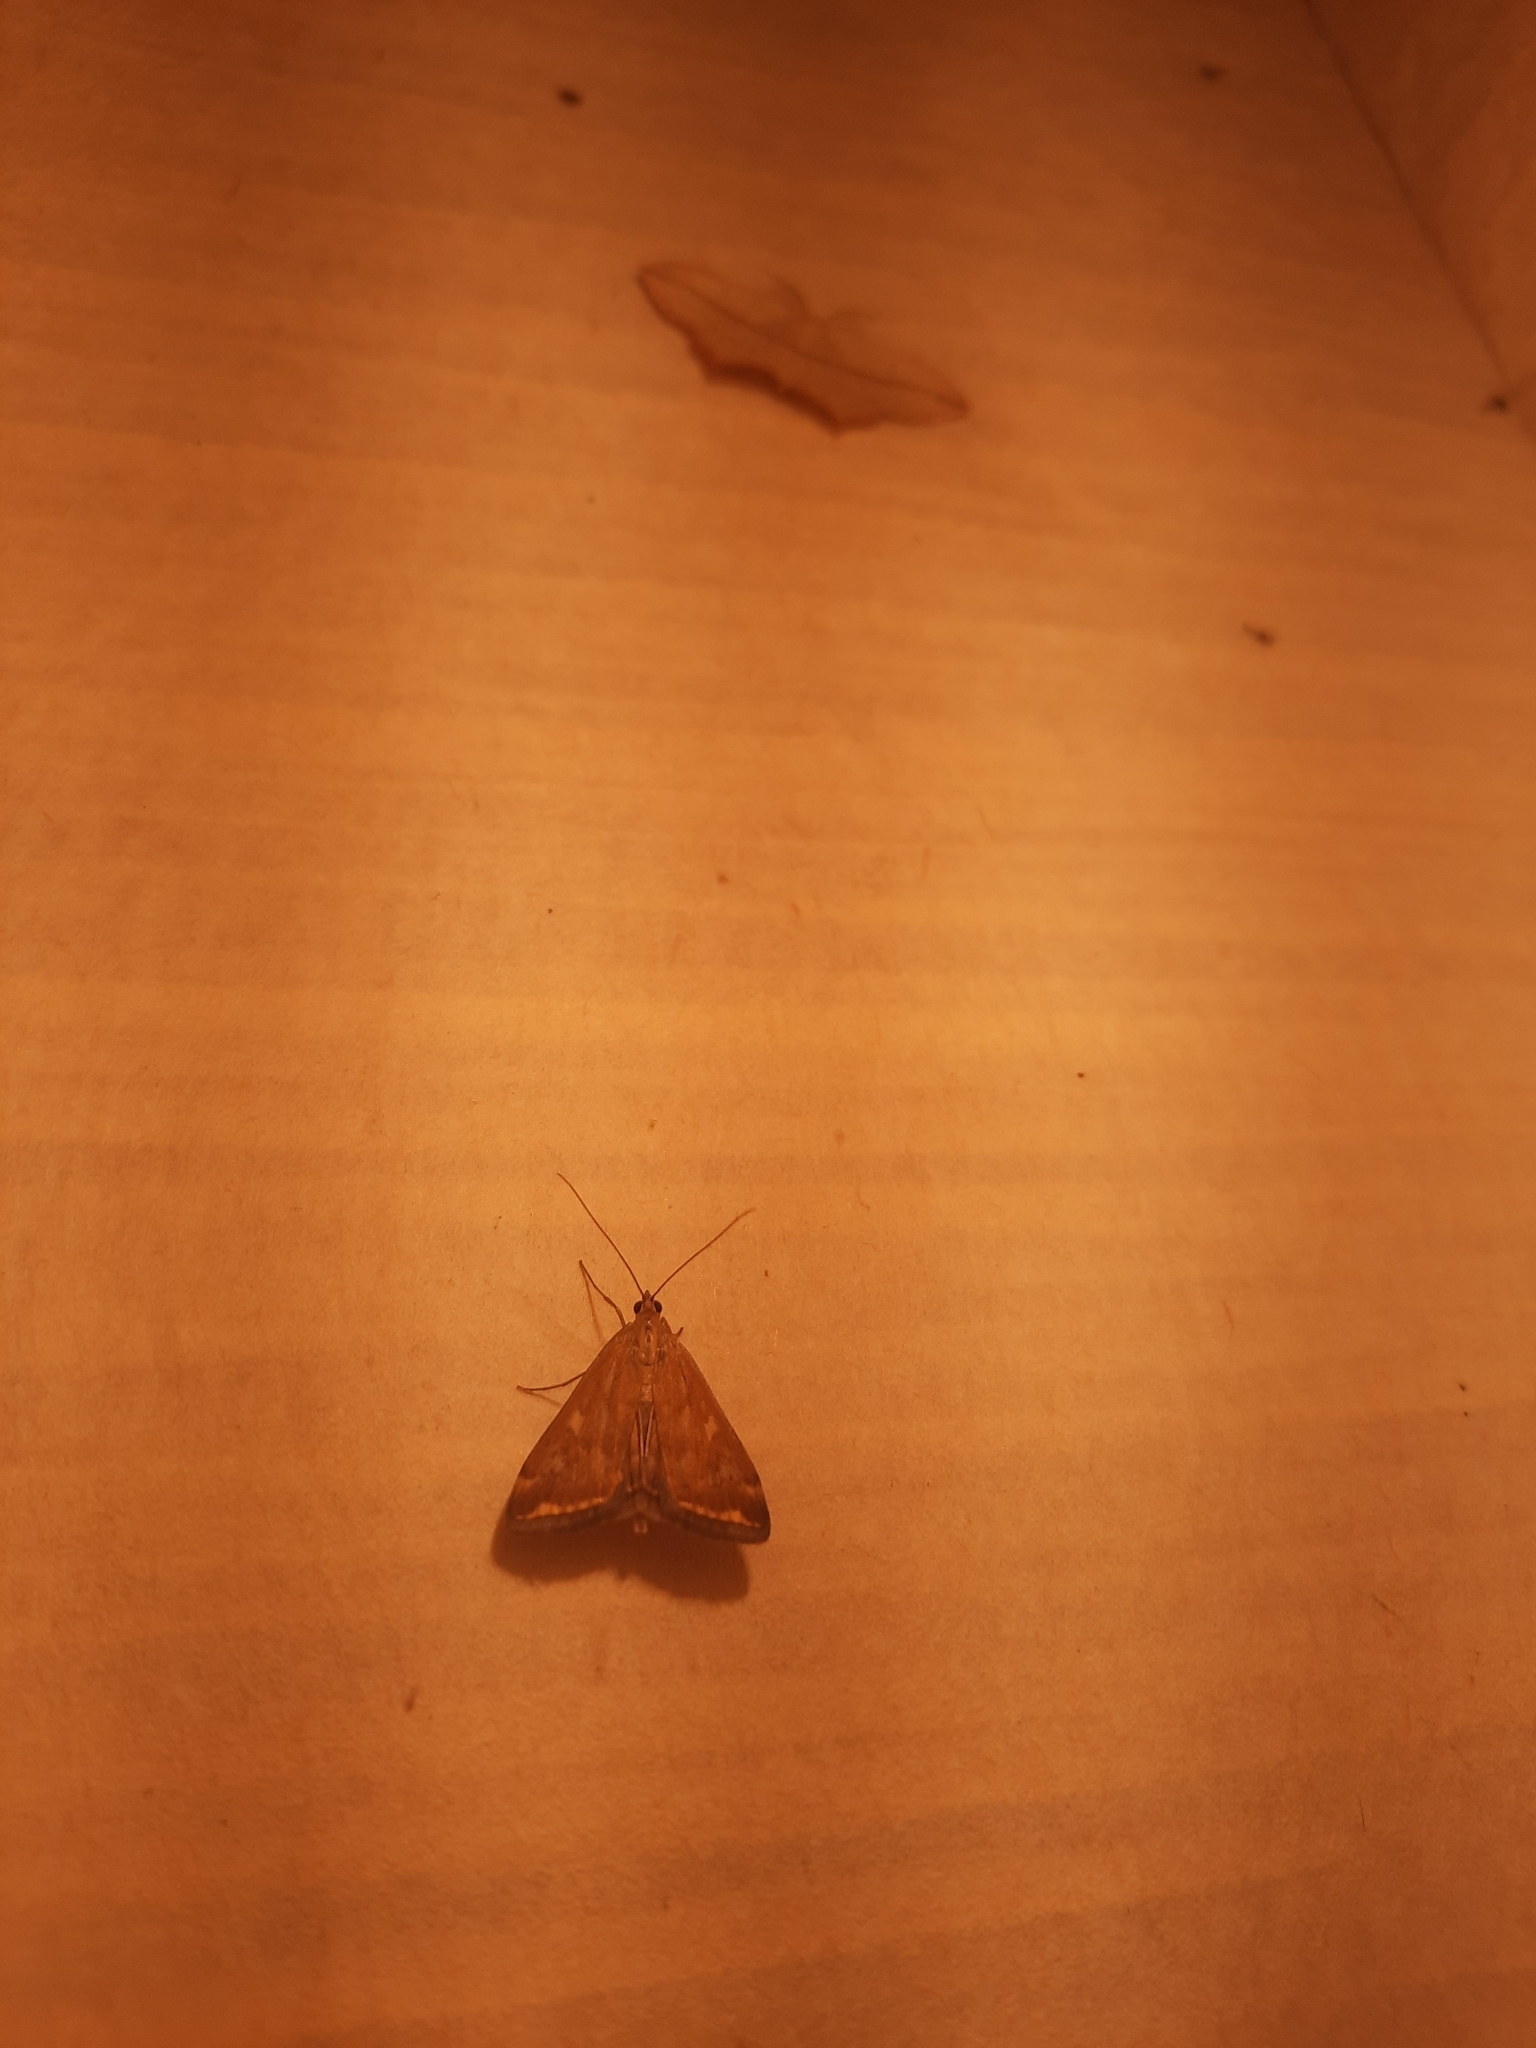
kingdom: Animalia
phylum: Arthropoda
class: Insecta
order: Lepidoptera
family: Crambidae
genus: Loxostege
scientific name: Loxostege sticticalis
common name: Crambid moth
